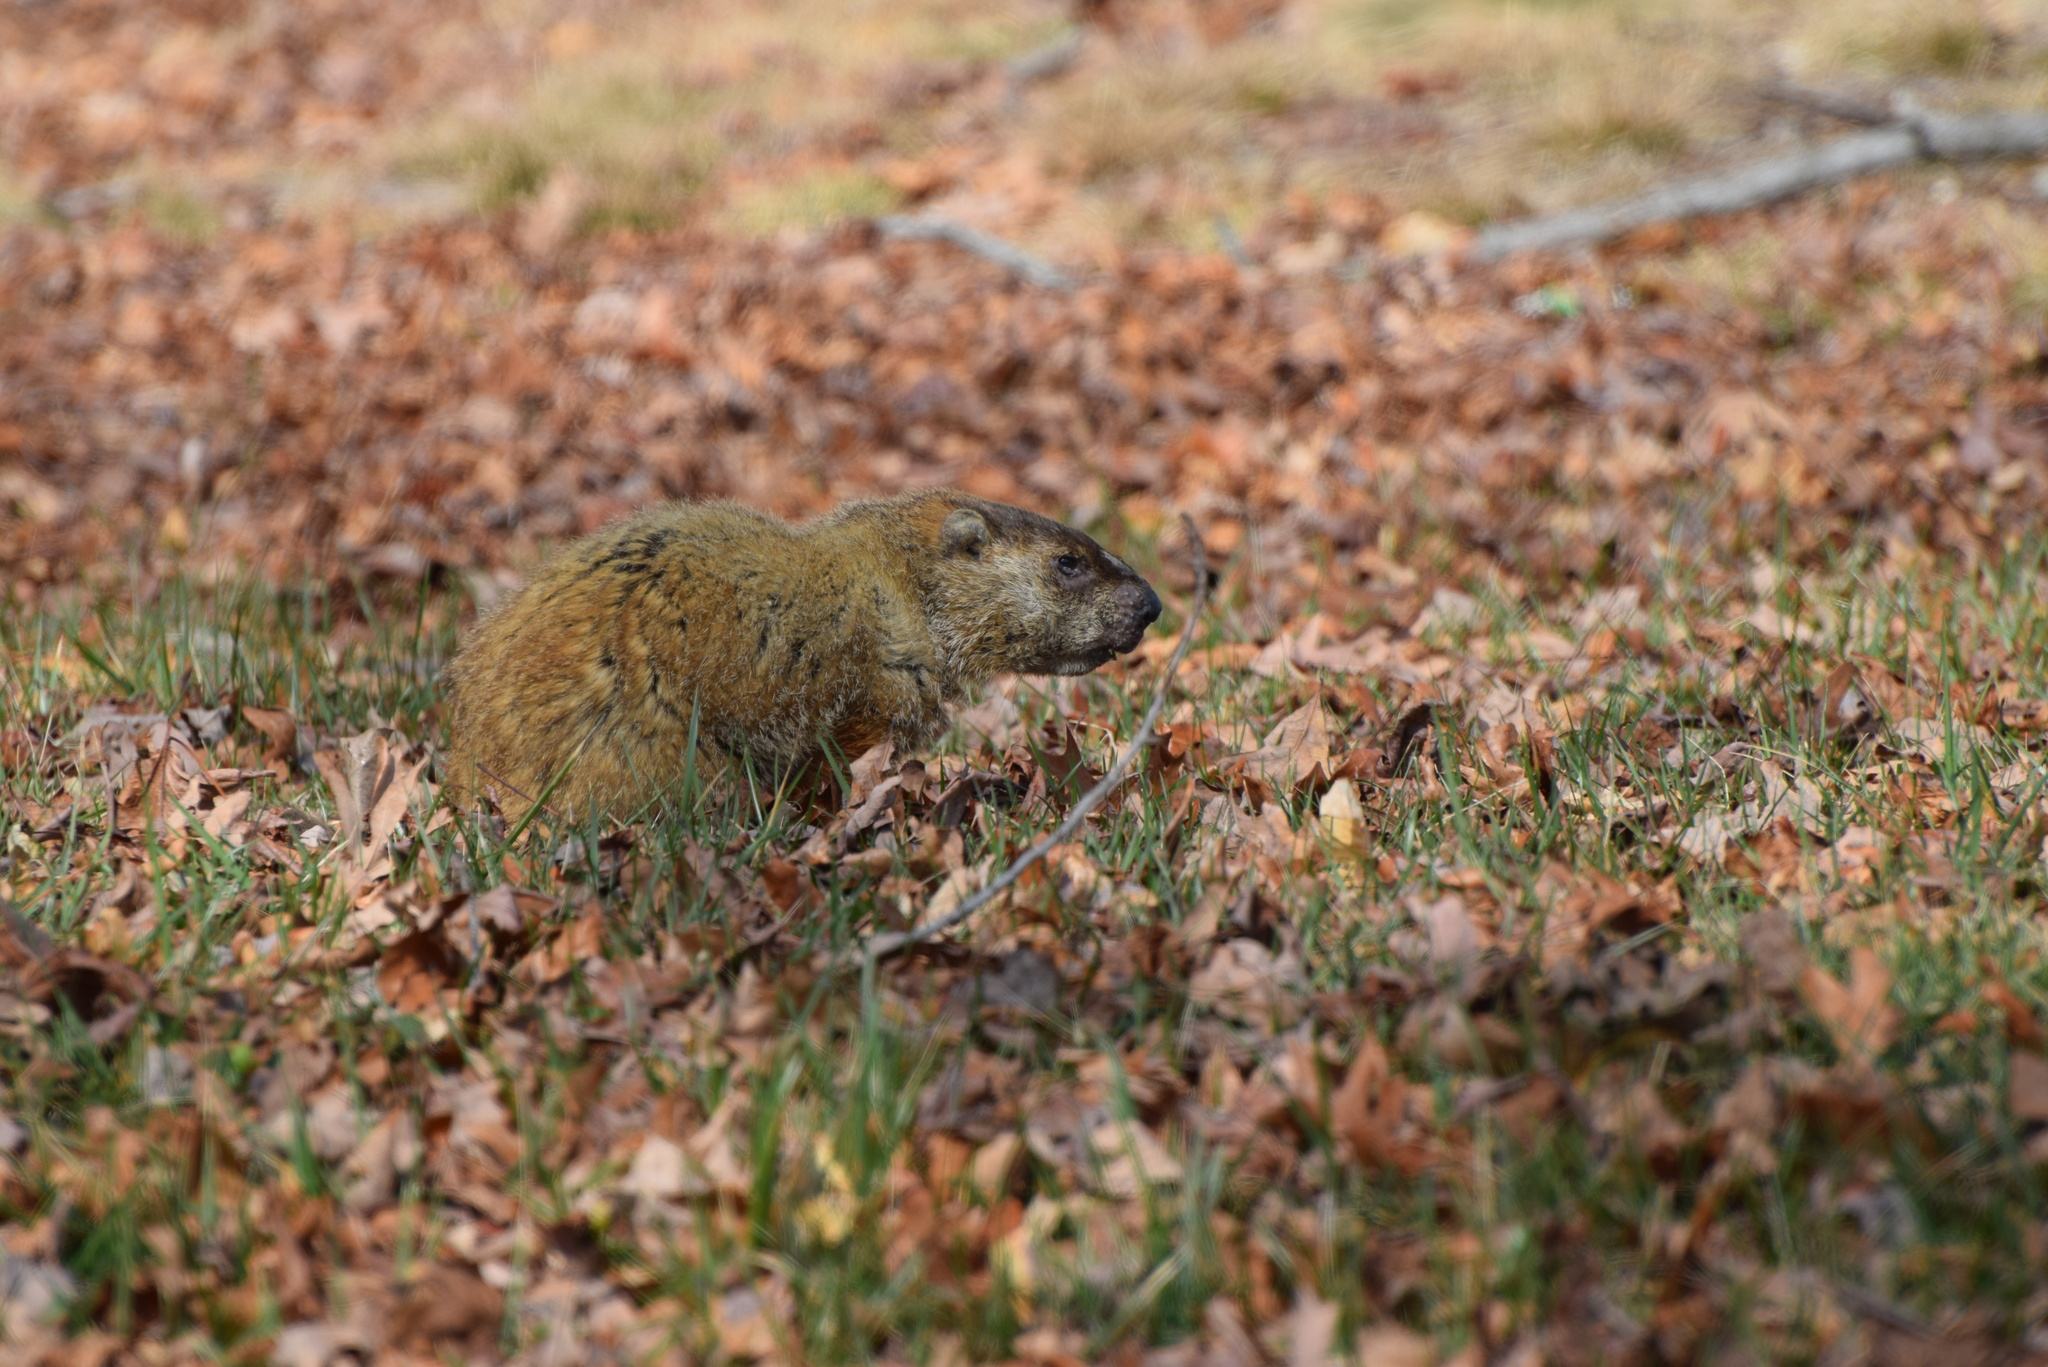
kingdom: Animalia
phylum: Chordata
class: Mammalia
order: Rodentia
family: Sciuridae
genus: Marmota
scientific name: Marmota monax
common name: Groundhog
